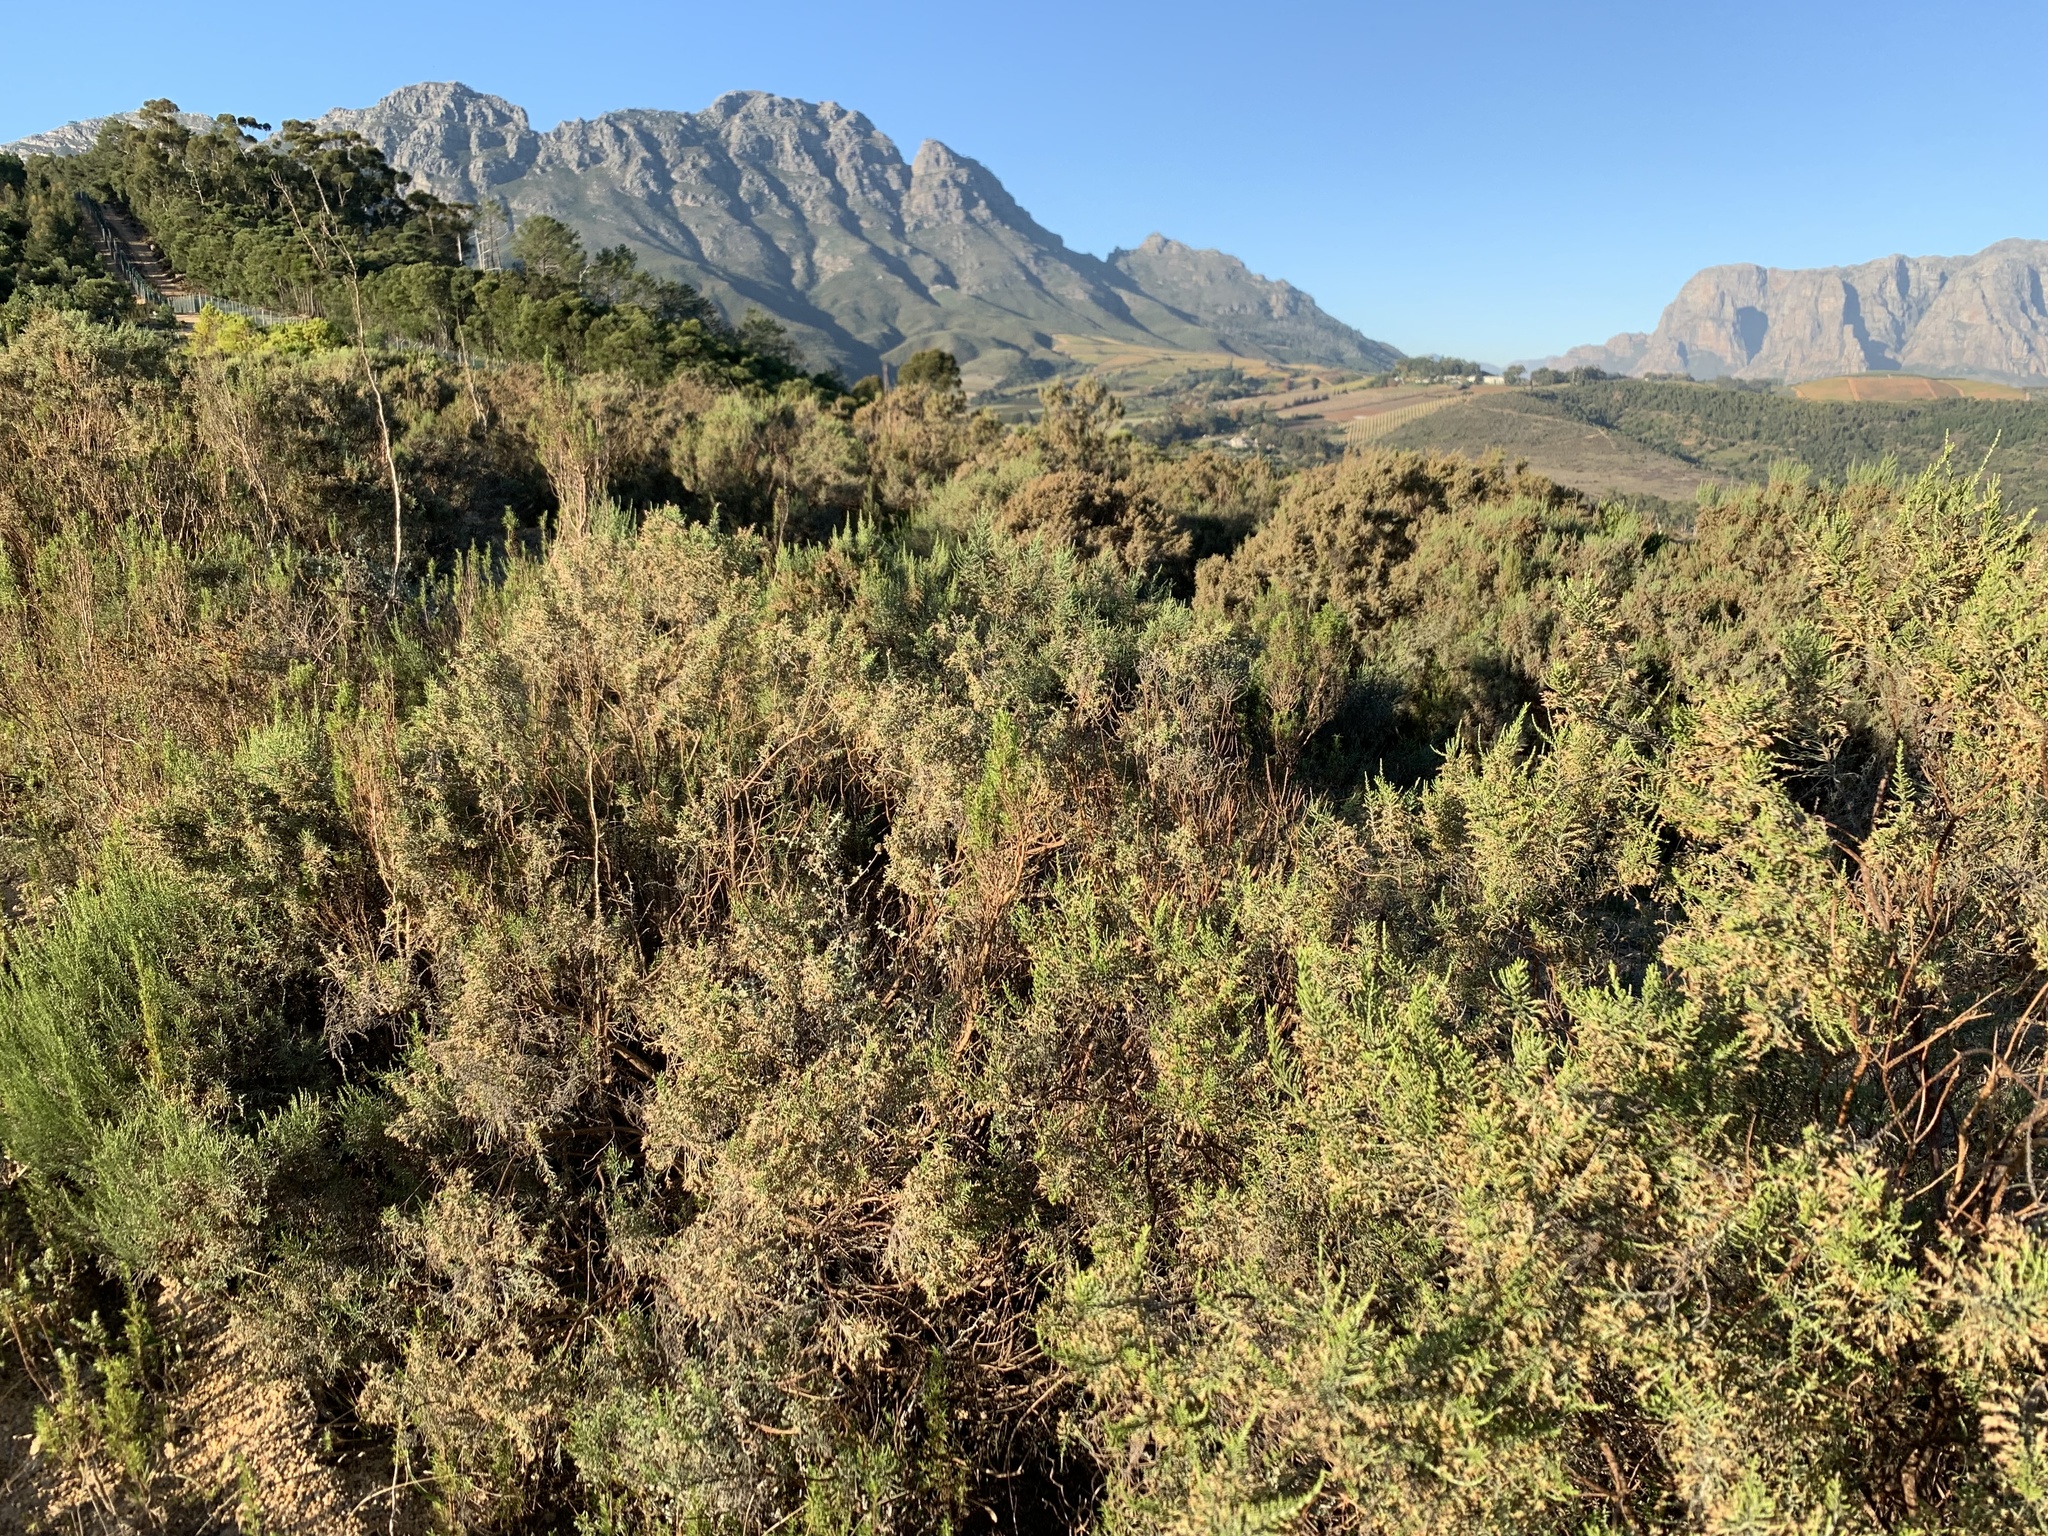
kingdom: Plantae
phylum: Tracheophyta
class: Magnoliopsida
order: Asterales
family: Asteraceae
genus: Dicerothamnus
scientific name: Dicerothamnus rhinocerotis
